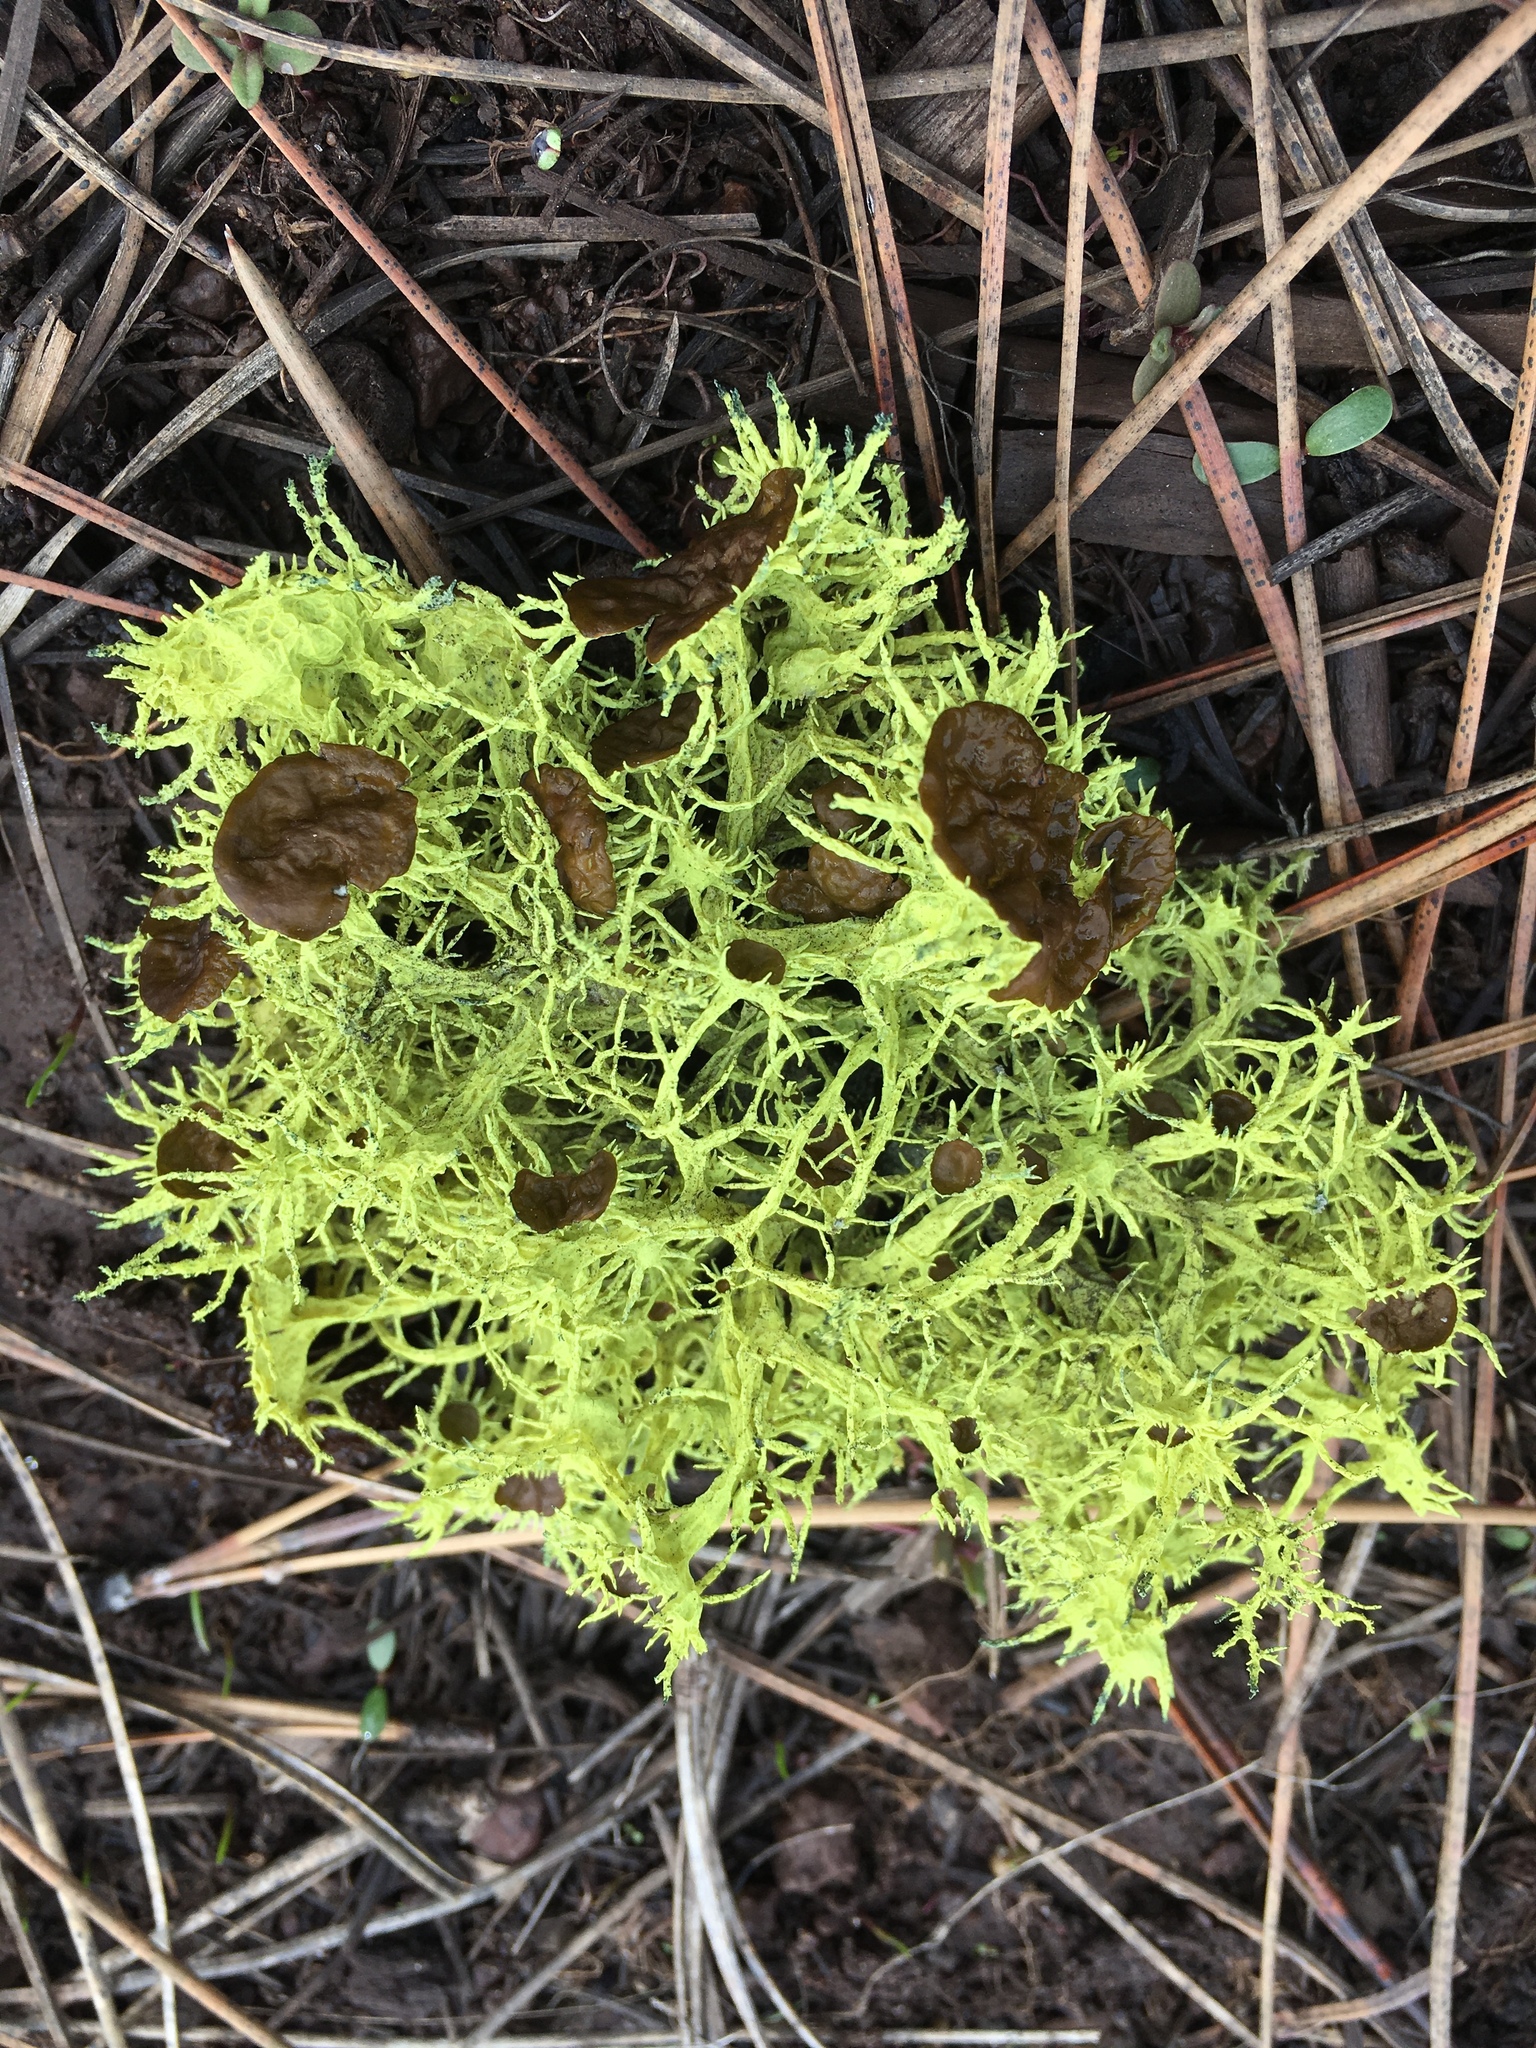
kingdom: Fungi
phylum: Ascomycota
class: Lecanoromycetes
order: Lecanorales
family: Parmeliaceae
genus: Letharia
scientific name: Letharia columbiana
